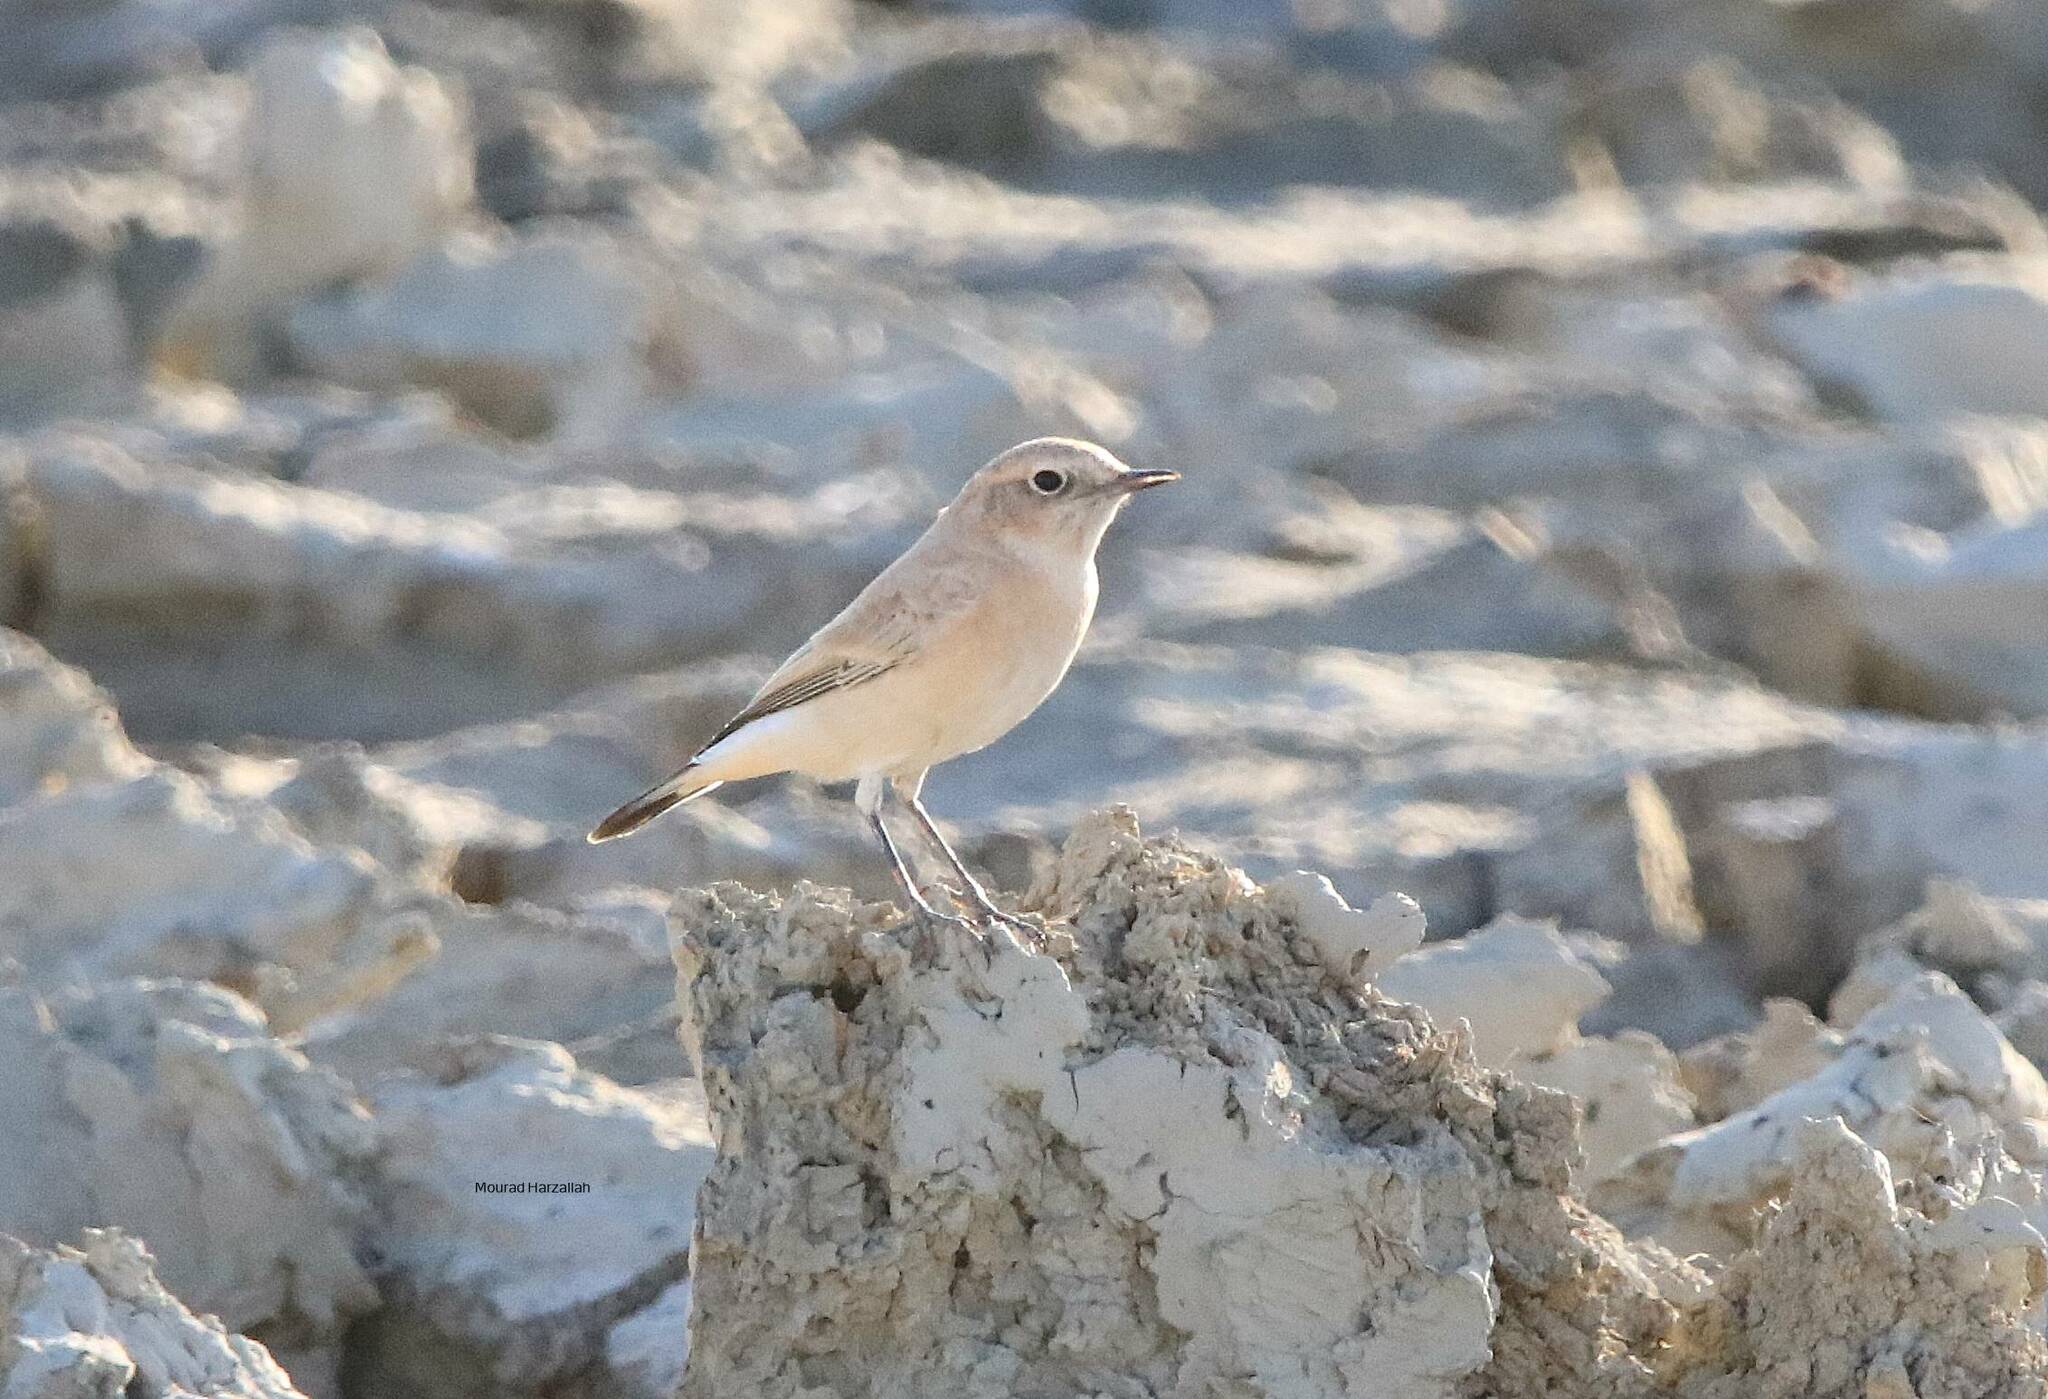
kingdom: Animalia
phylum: Chordata
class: Aves
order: Passeriformes
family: Muscicapidae
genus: Oenanthe
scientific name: Oenanthe deserti
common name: Desert wheatear
